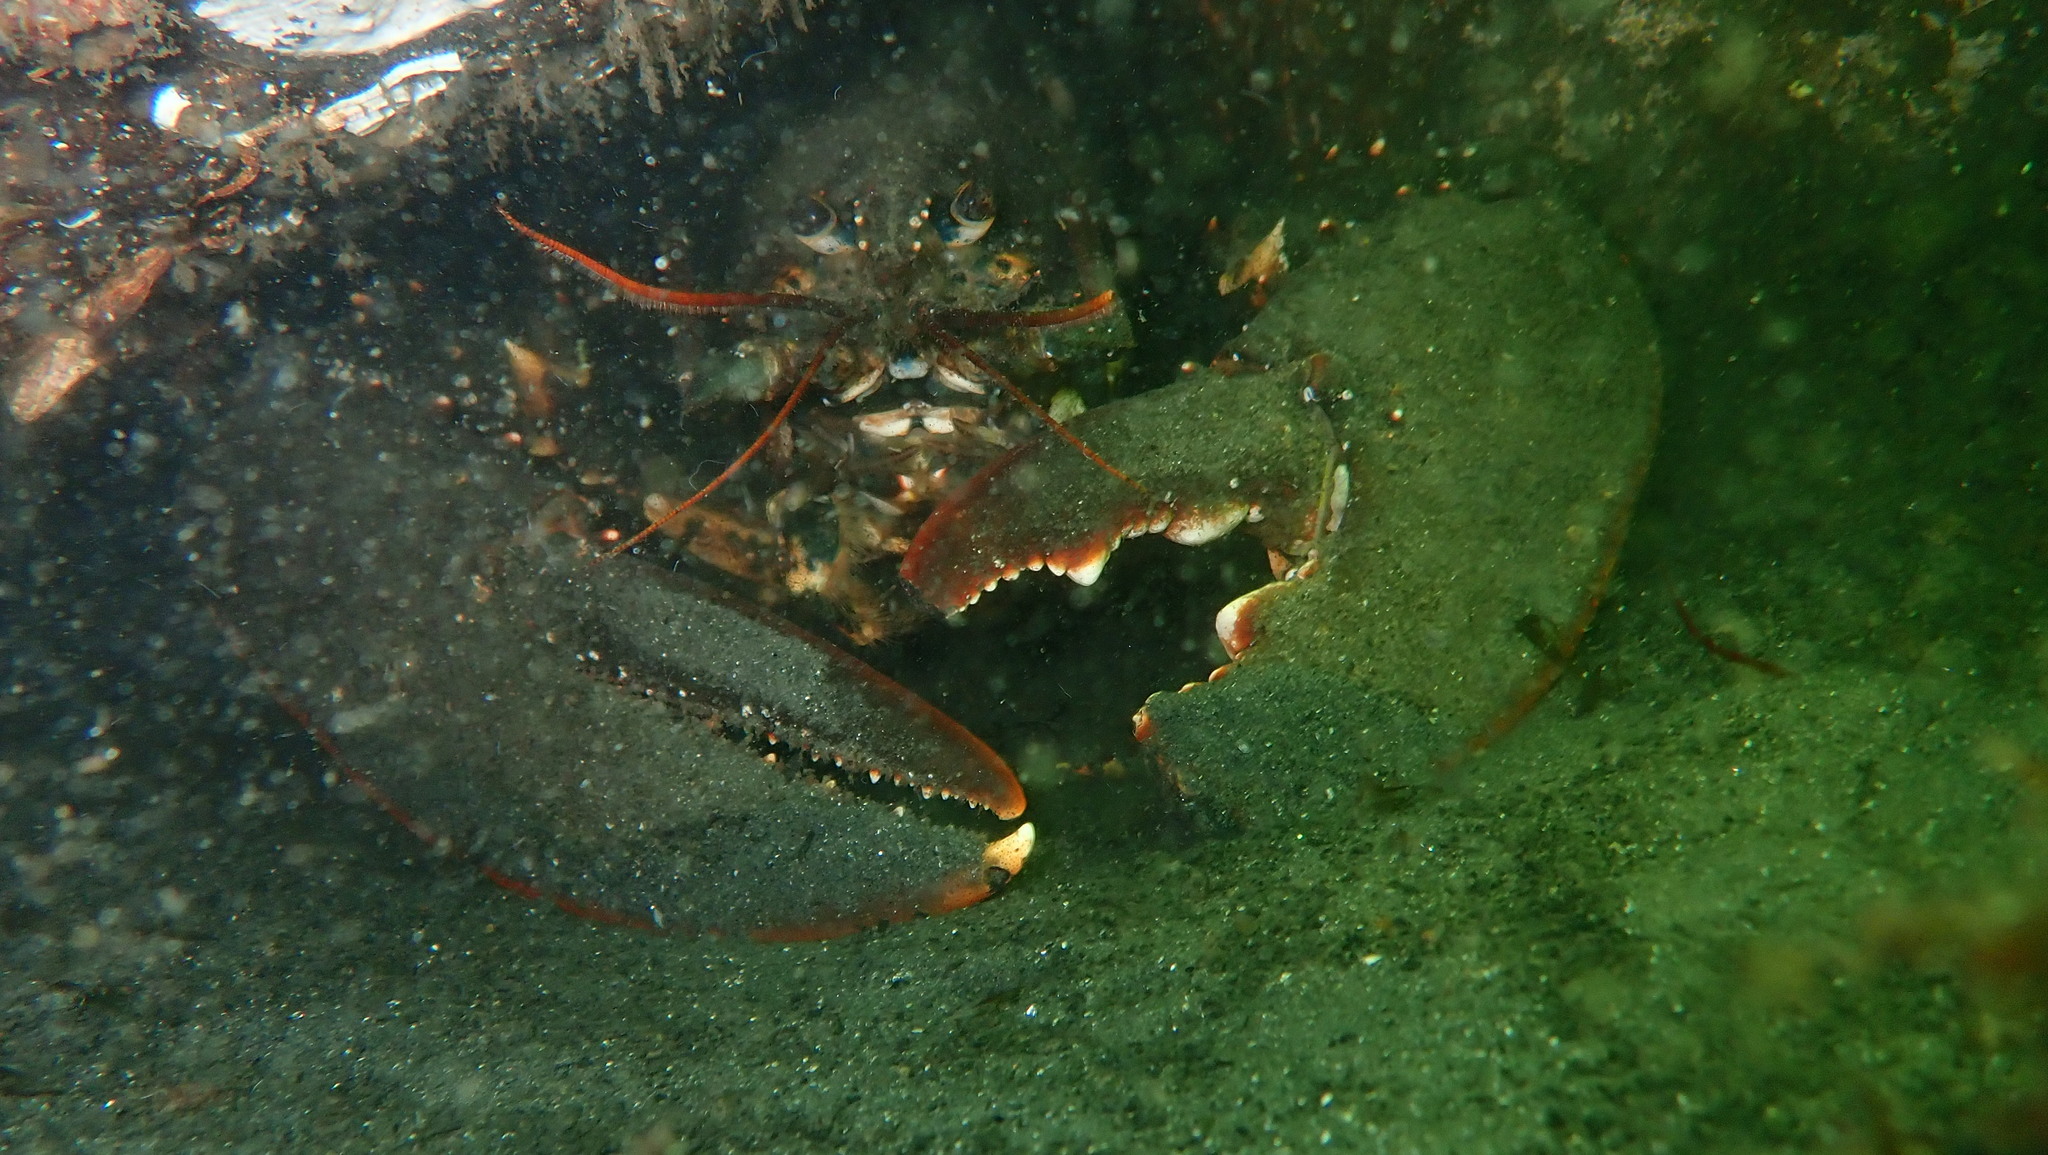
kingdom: Animalia
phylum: Arthropoda
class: Malacostraca
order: Decapoda
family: Nephropidae
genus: Homarus
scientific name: Homarus gammarus
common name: European lobster
